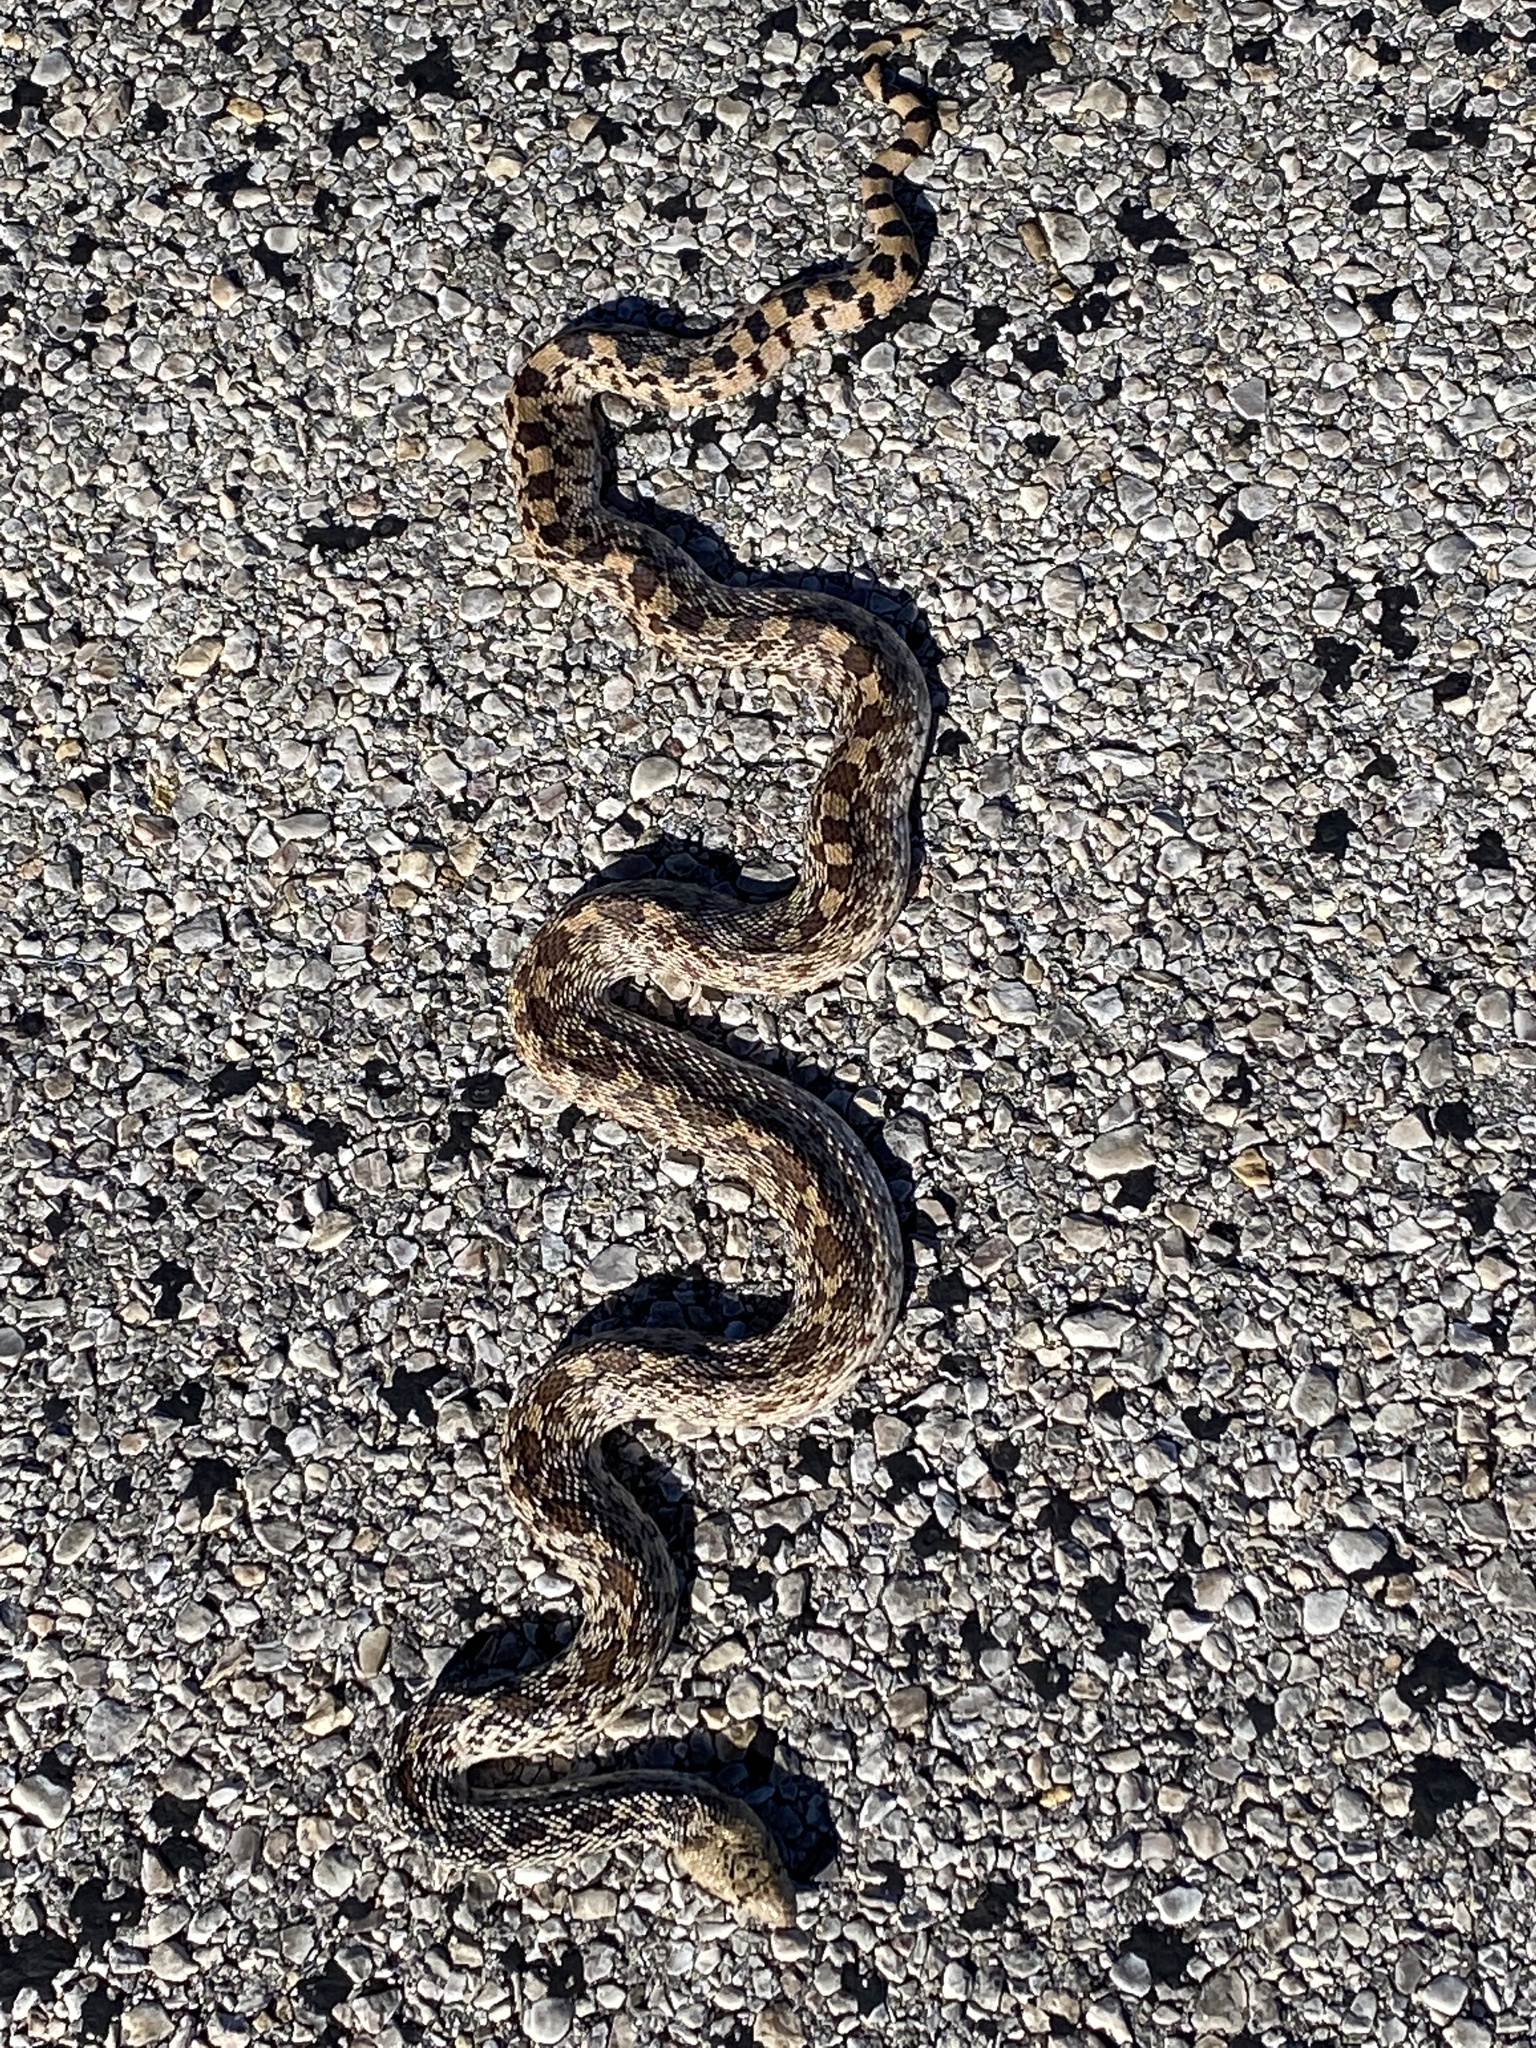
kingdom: Animalia
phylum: Chordata
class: Squamata
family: Colubridae
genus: Pituophis
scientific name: Pituophis catenifer
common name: Gopher snake
